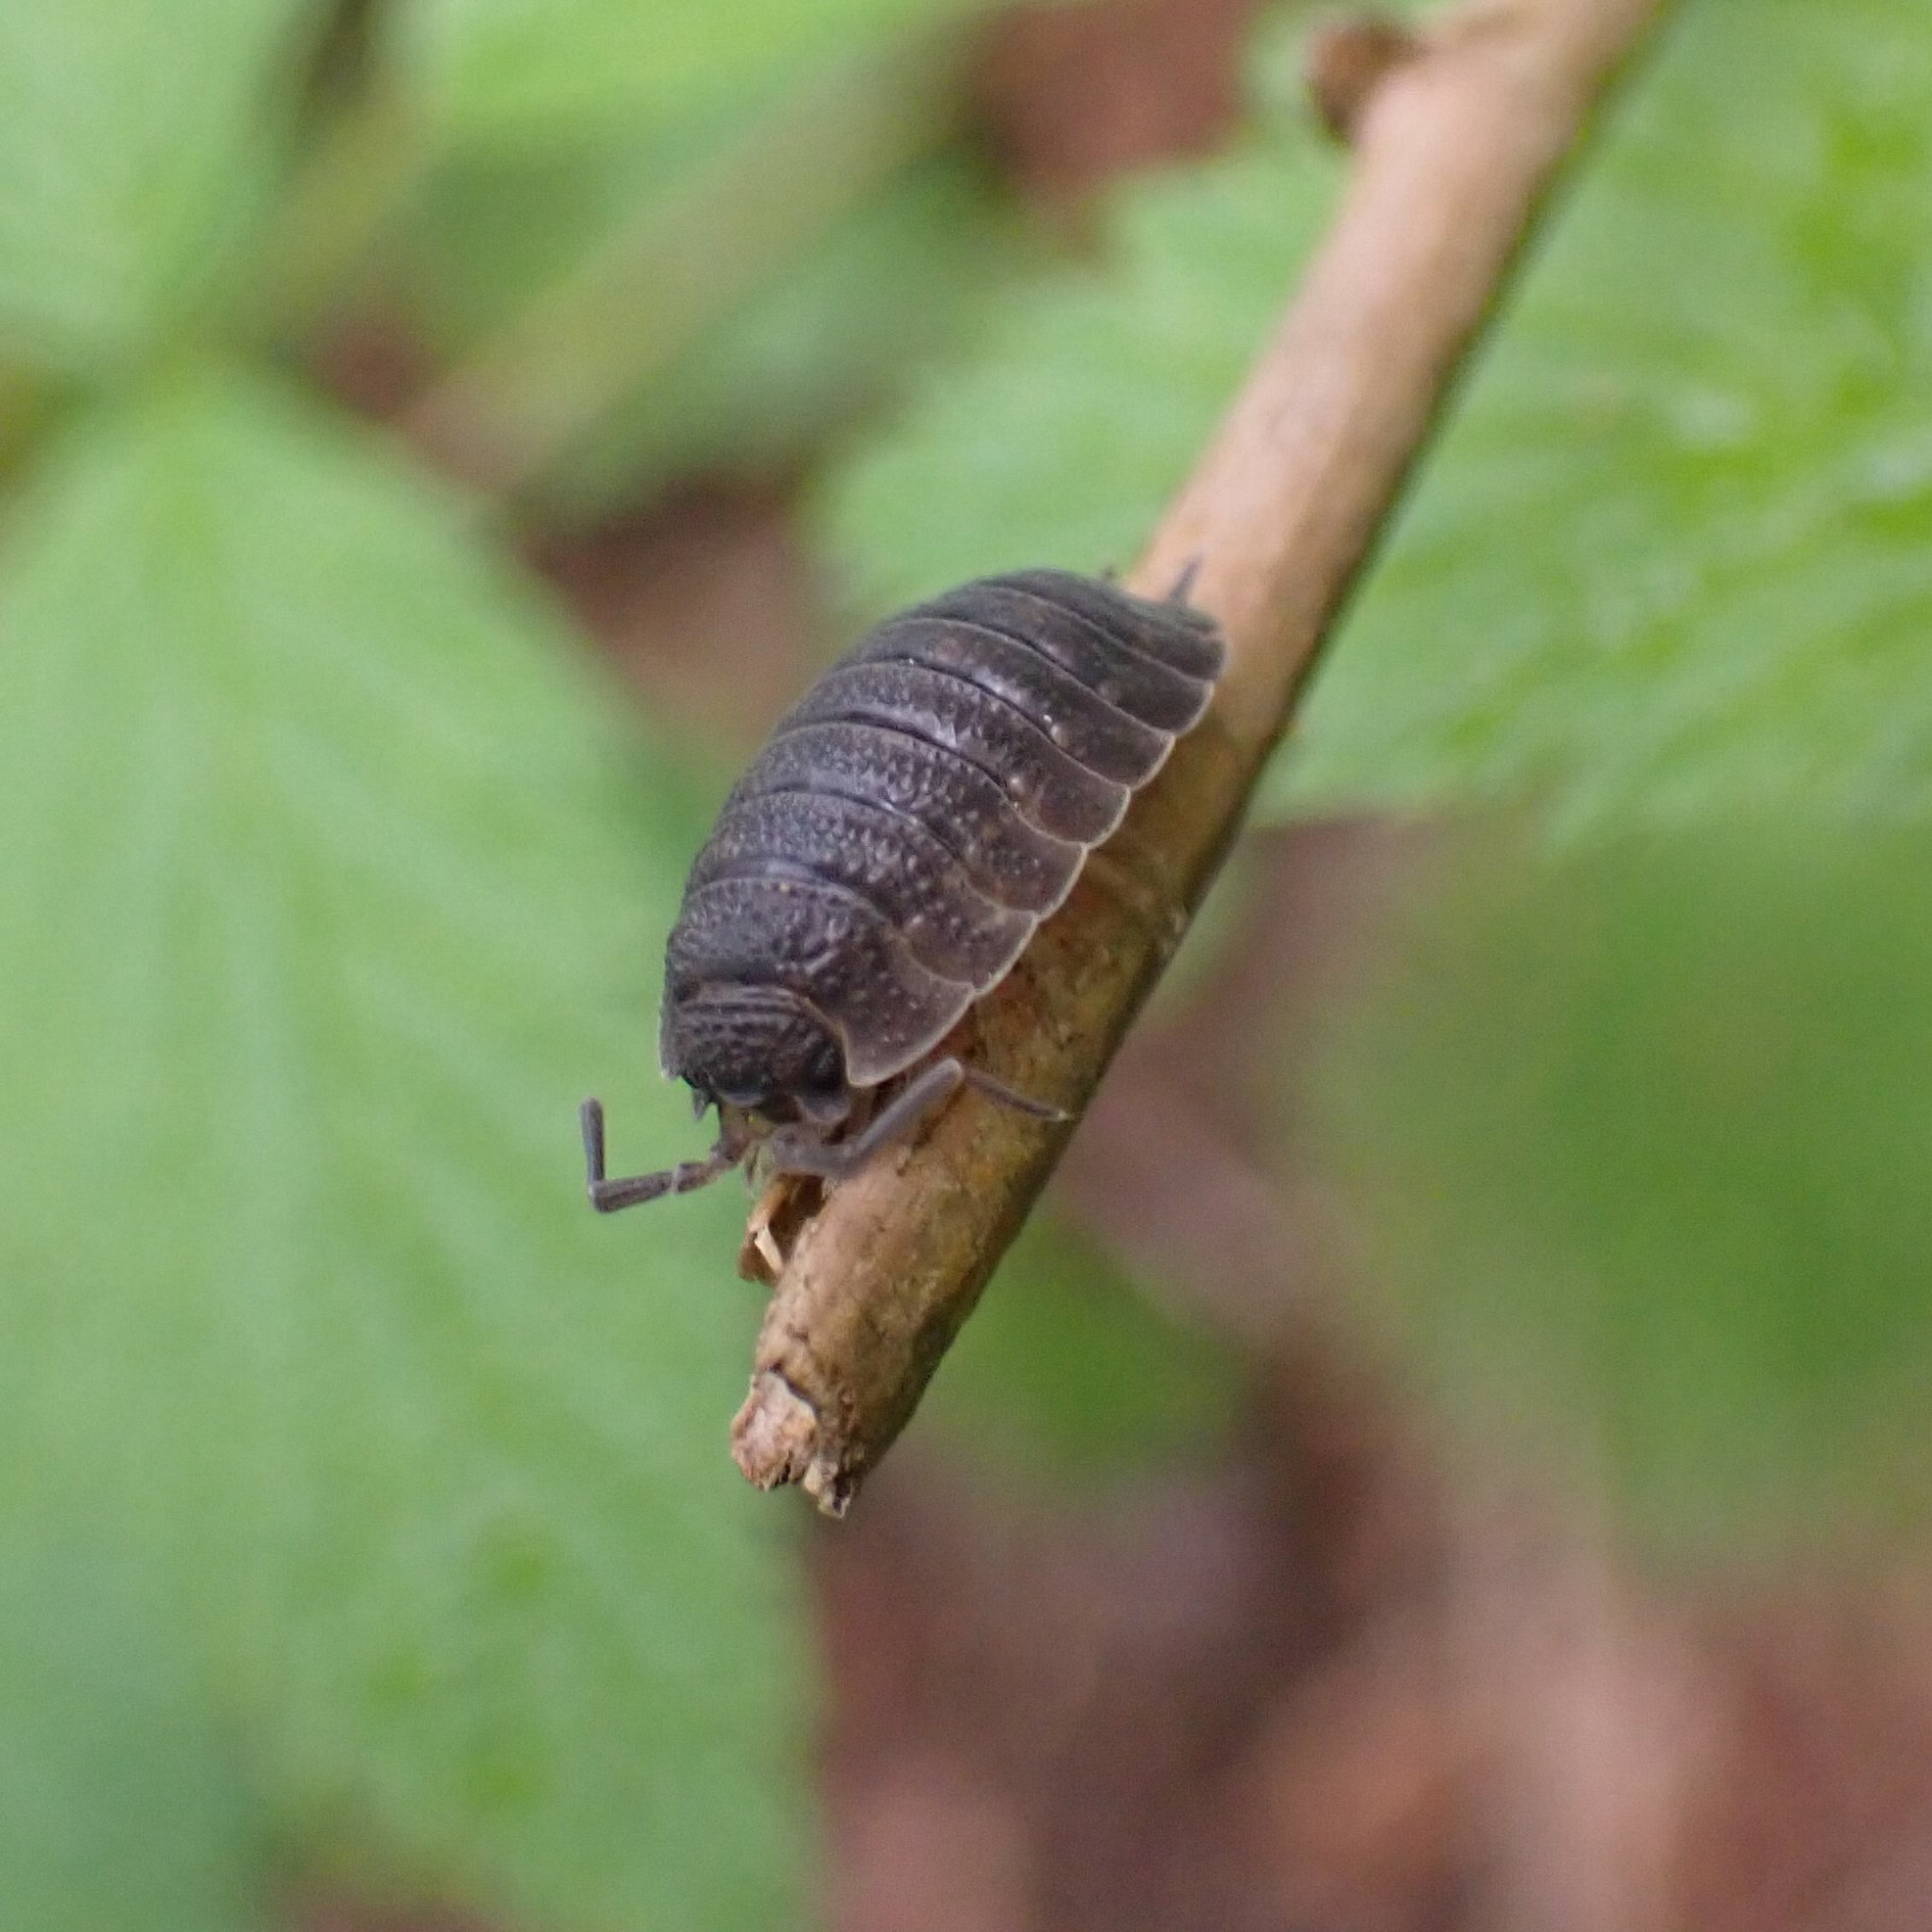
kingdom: Animalia
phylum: Arthropoda
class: Malacostraca
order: Isopoda
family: Porcellionidae
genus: Porcellio
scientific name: Porcellio scaber
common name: Common rough woodlouse
